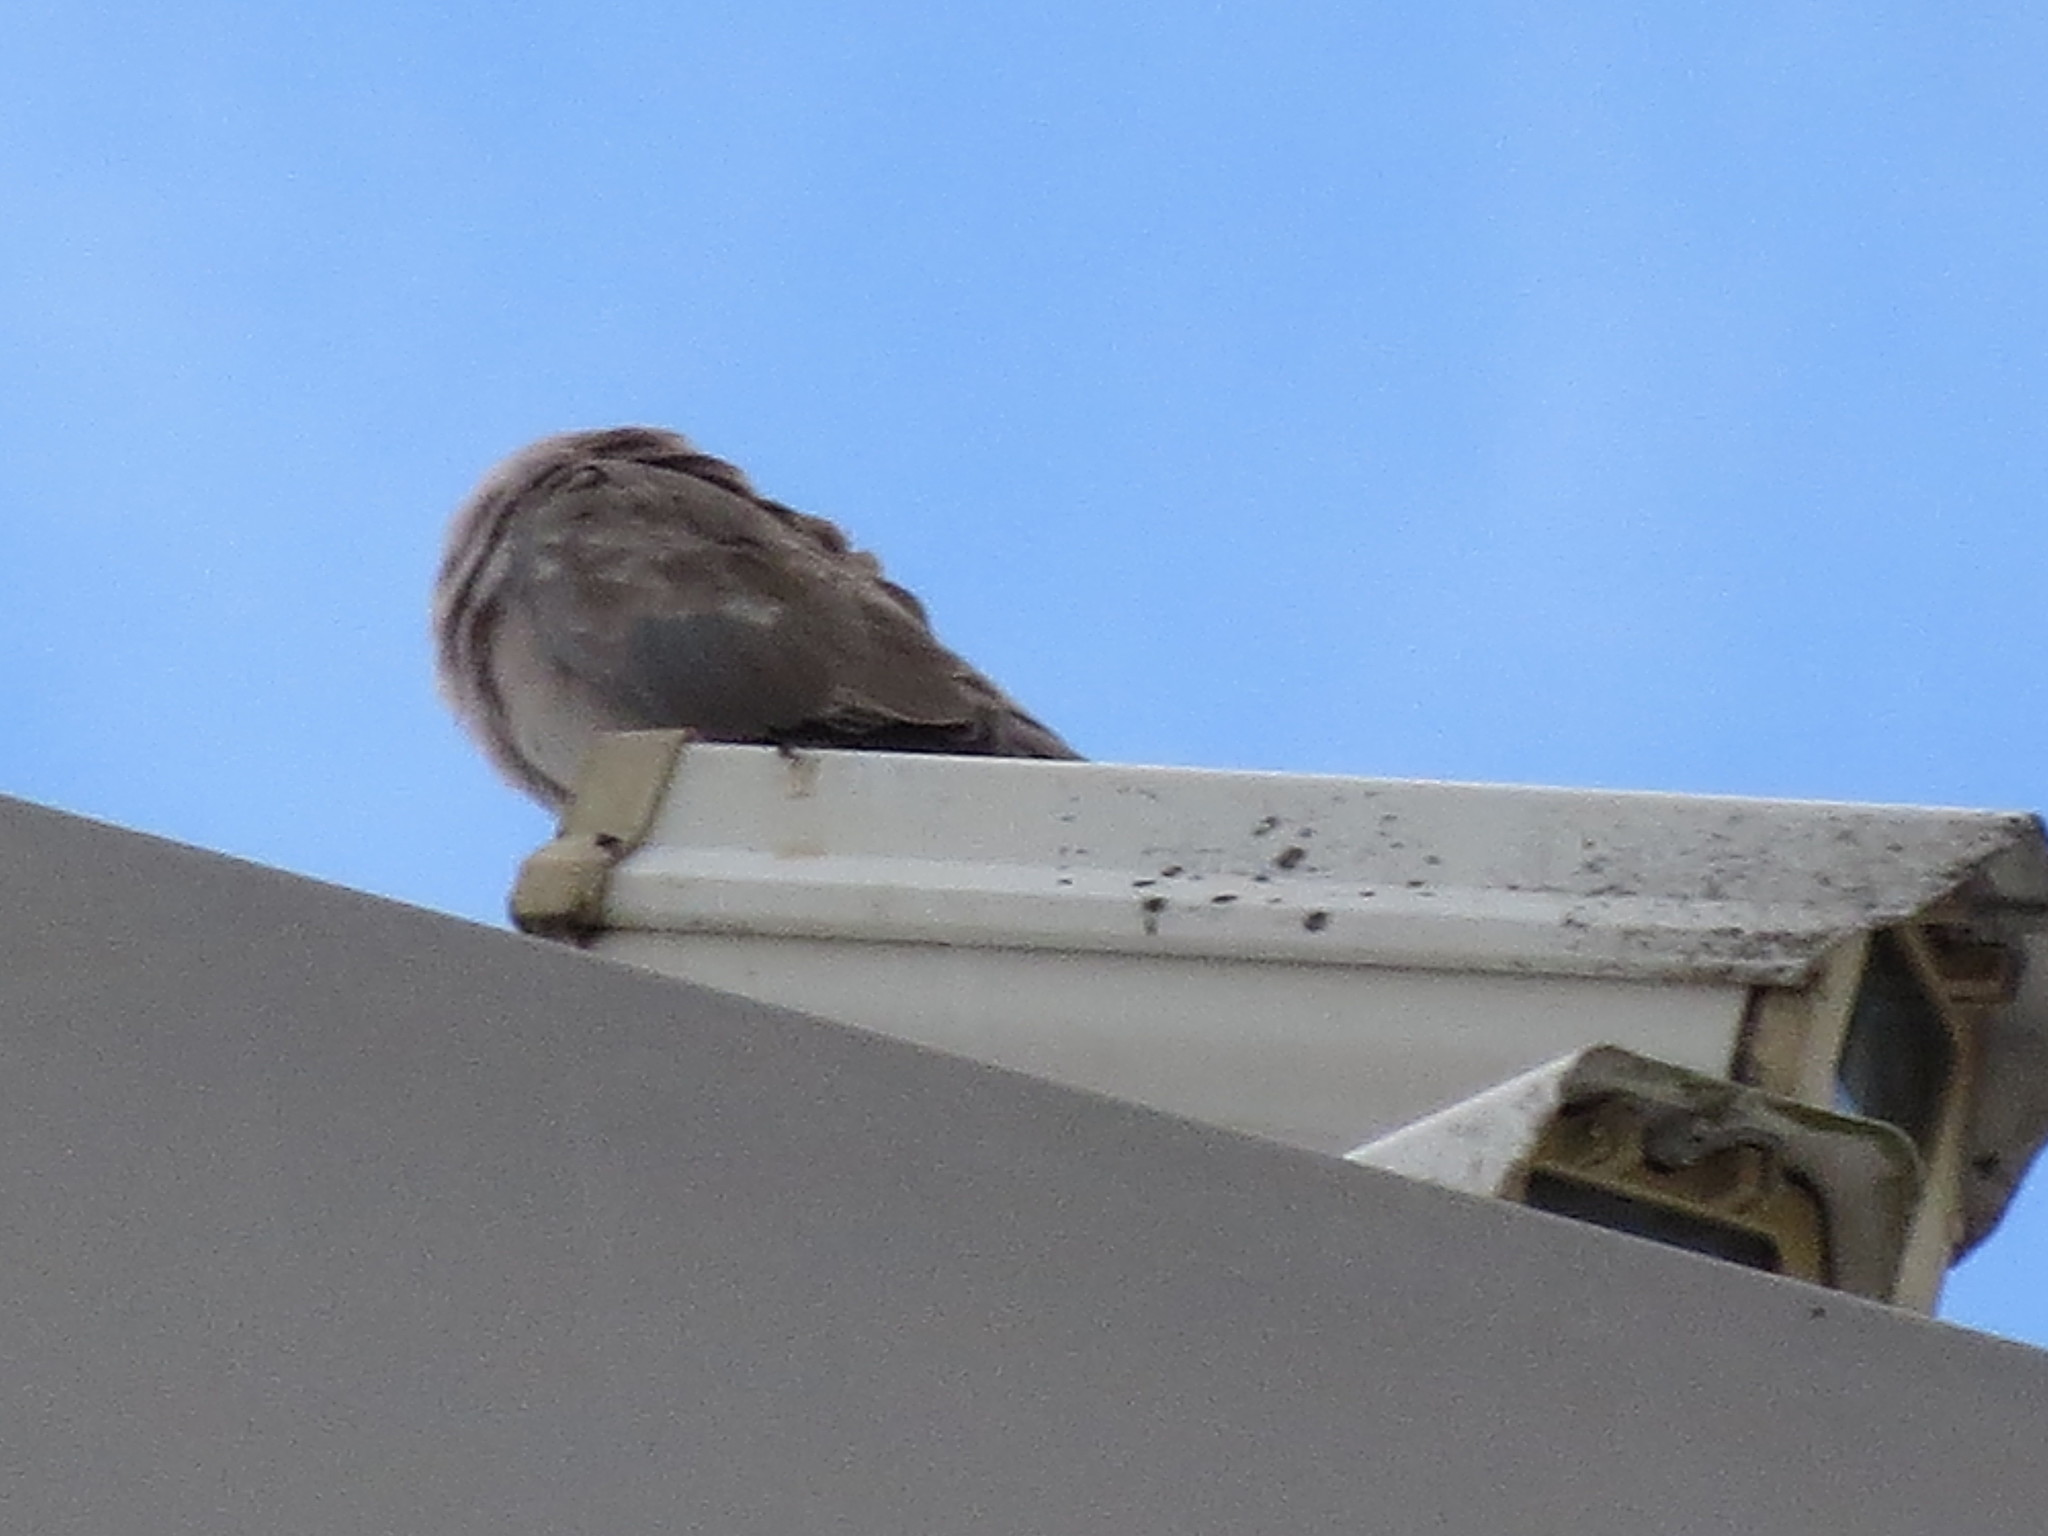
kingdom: Animalia
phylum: Chordata
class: Aves
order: Columbiformes
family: Columbidae
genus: Streptopelia
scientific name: Streptopelia decaocto
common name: Eurasian collared dove
